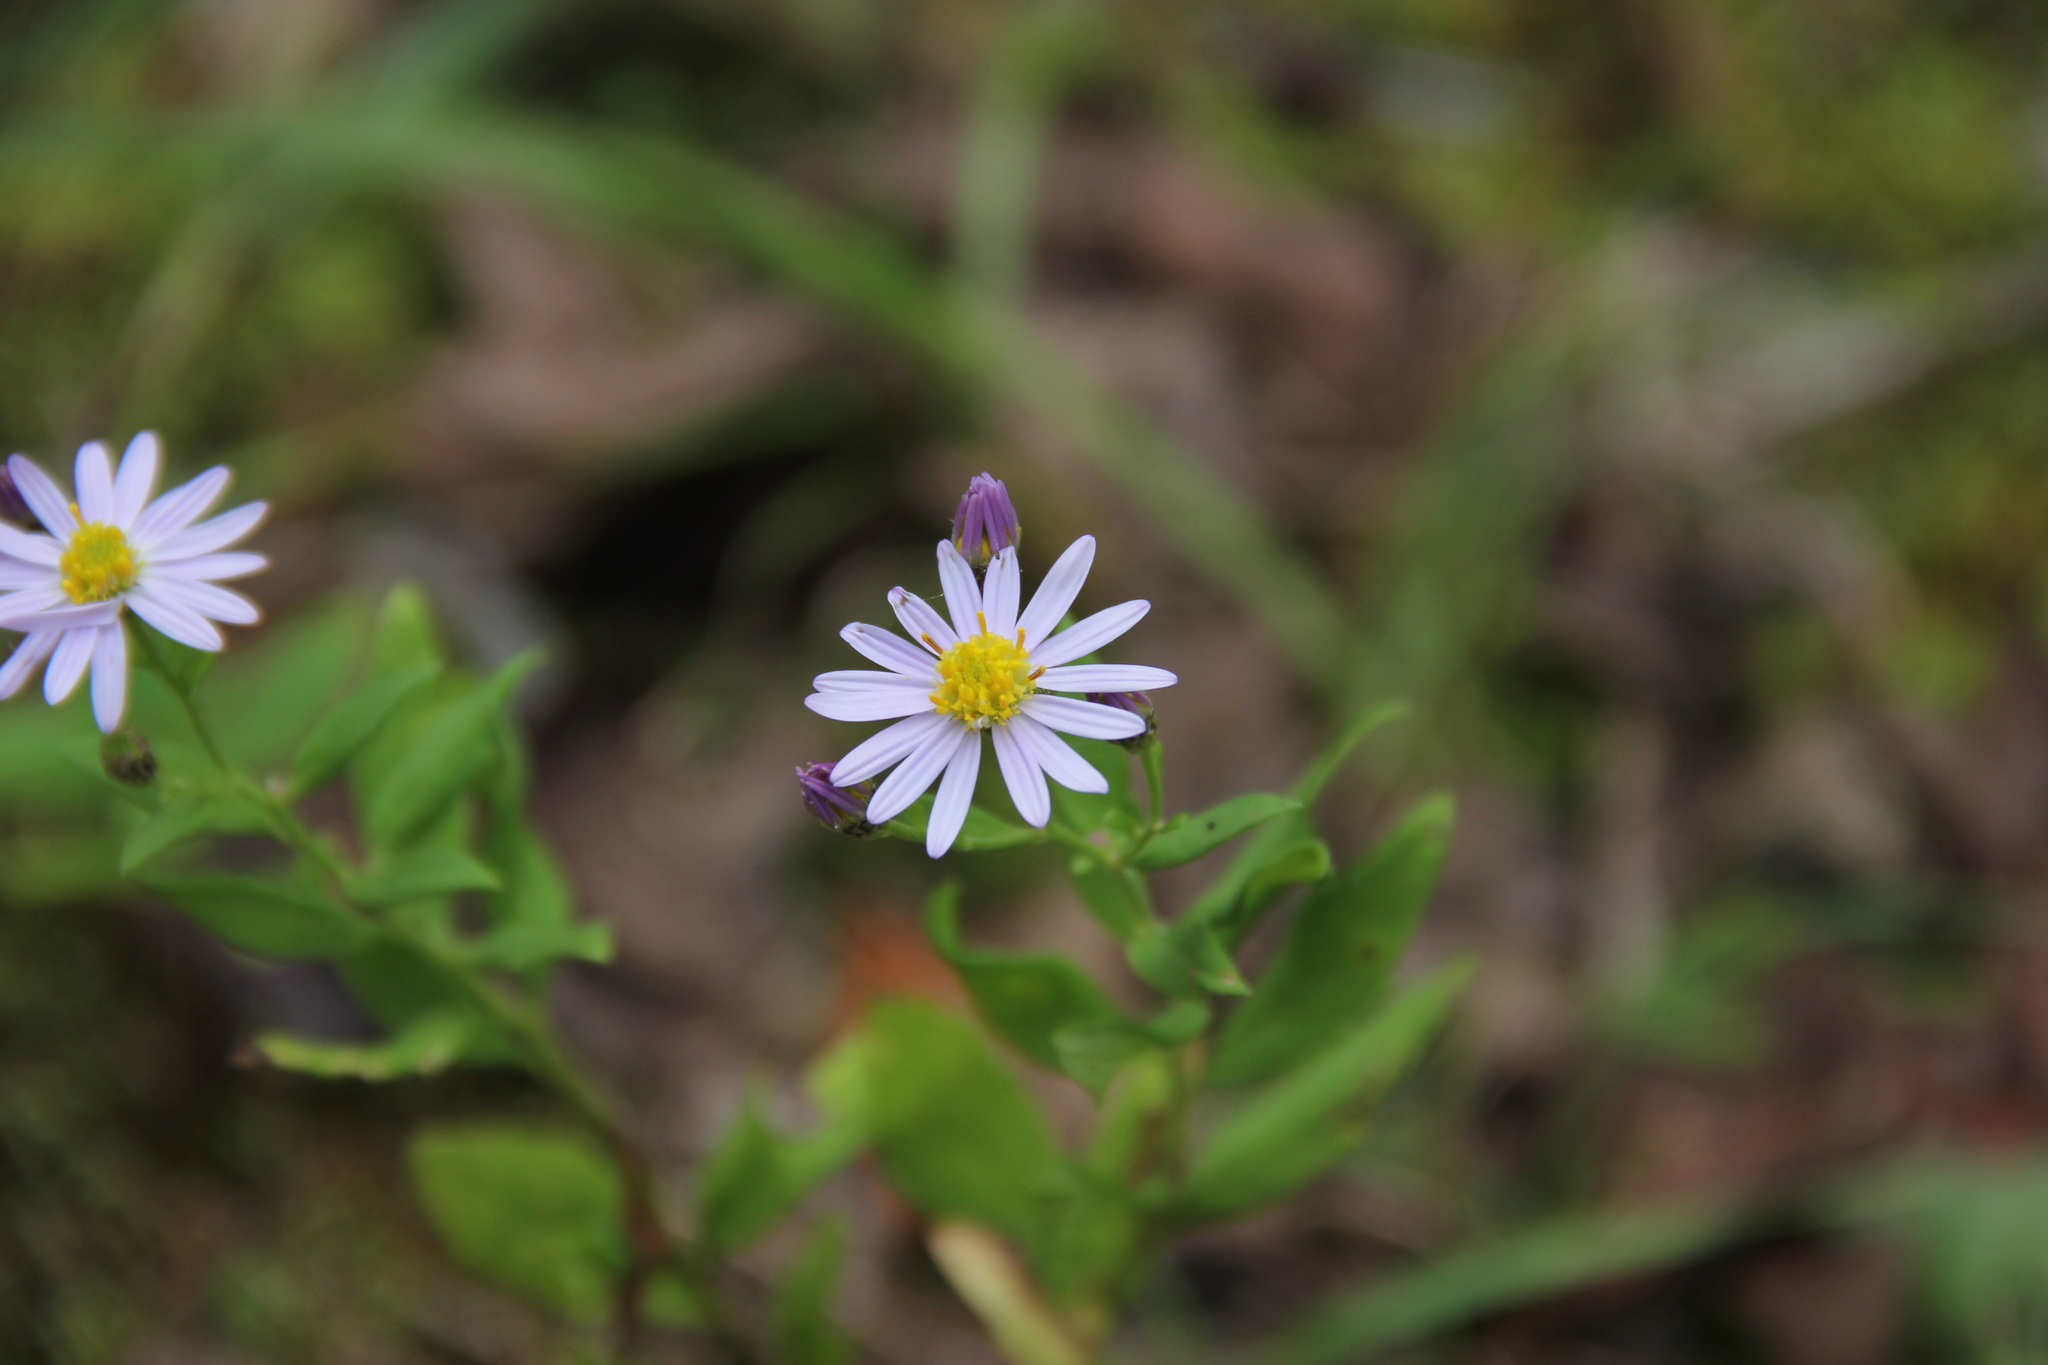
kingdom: Plantae
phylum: Tracheophyta
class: Magnoliopsida
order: Asterales
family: Asteraceae
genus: Aster
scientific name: Aster microcephalus
